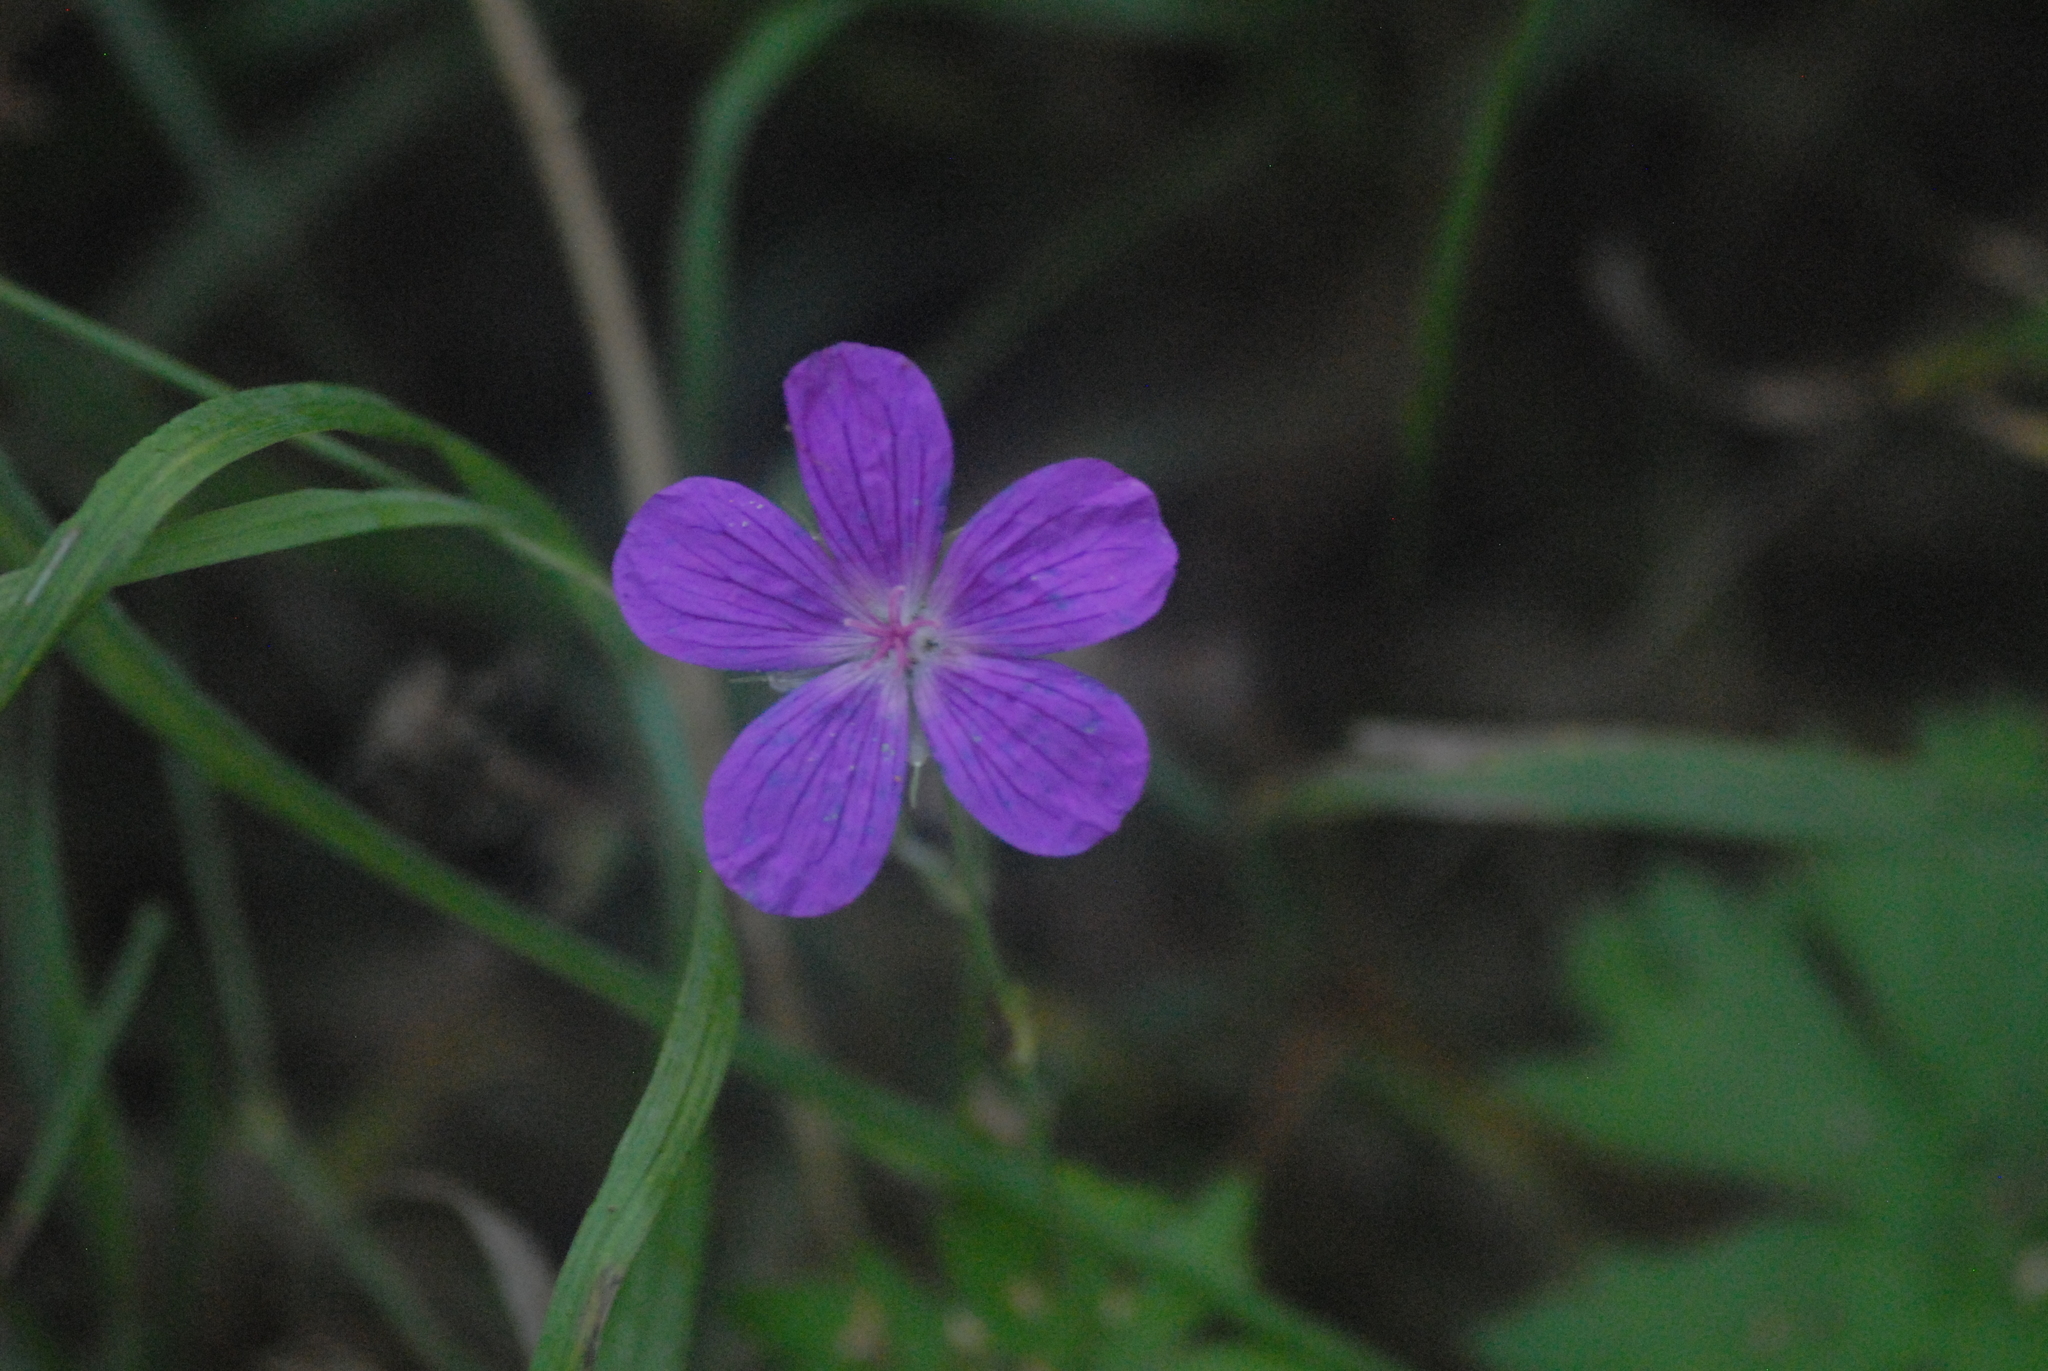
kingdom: Plantae
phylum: Tracheophyta
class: Magnoliopsida
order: Geraniales
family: Geraniaceae
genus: Geranium
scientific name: Geranium palustre
